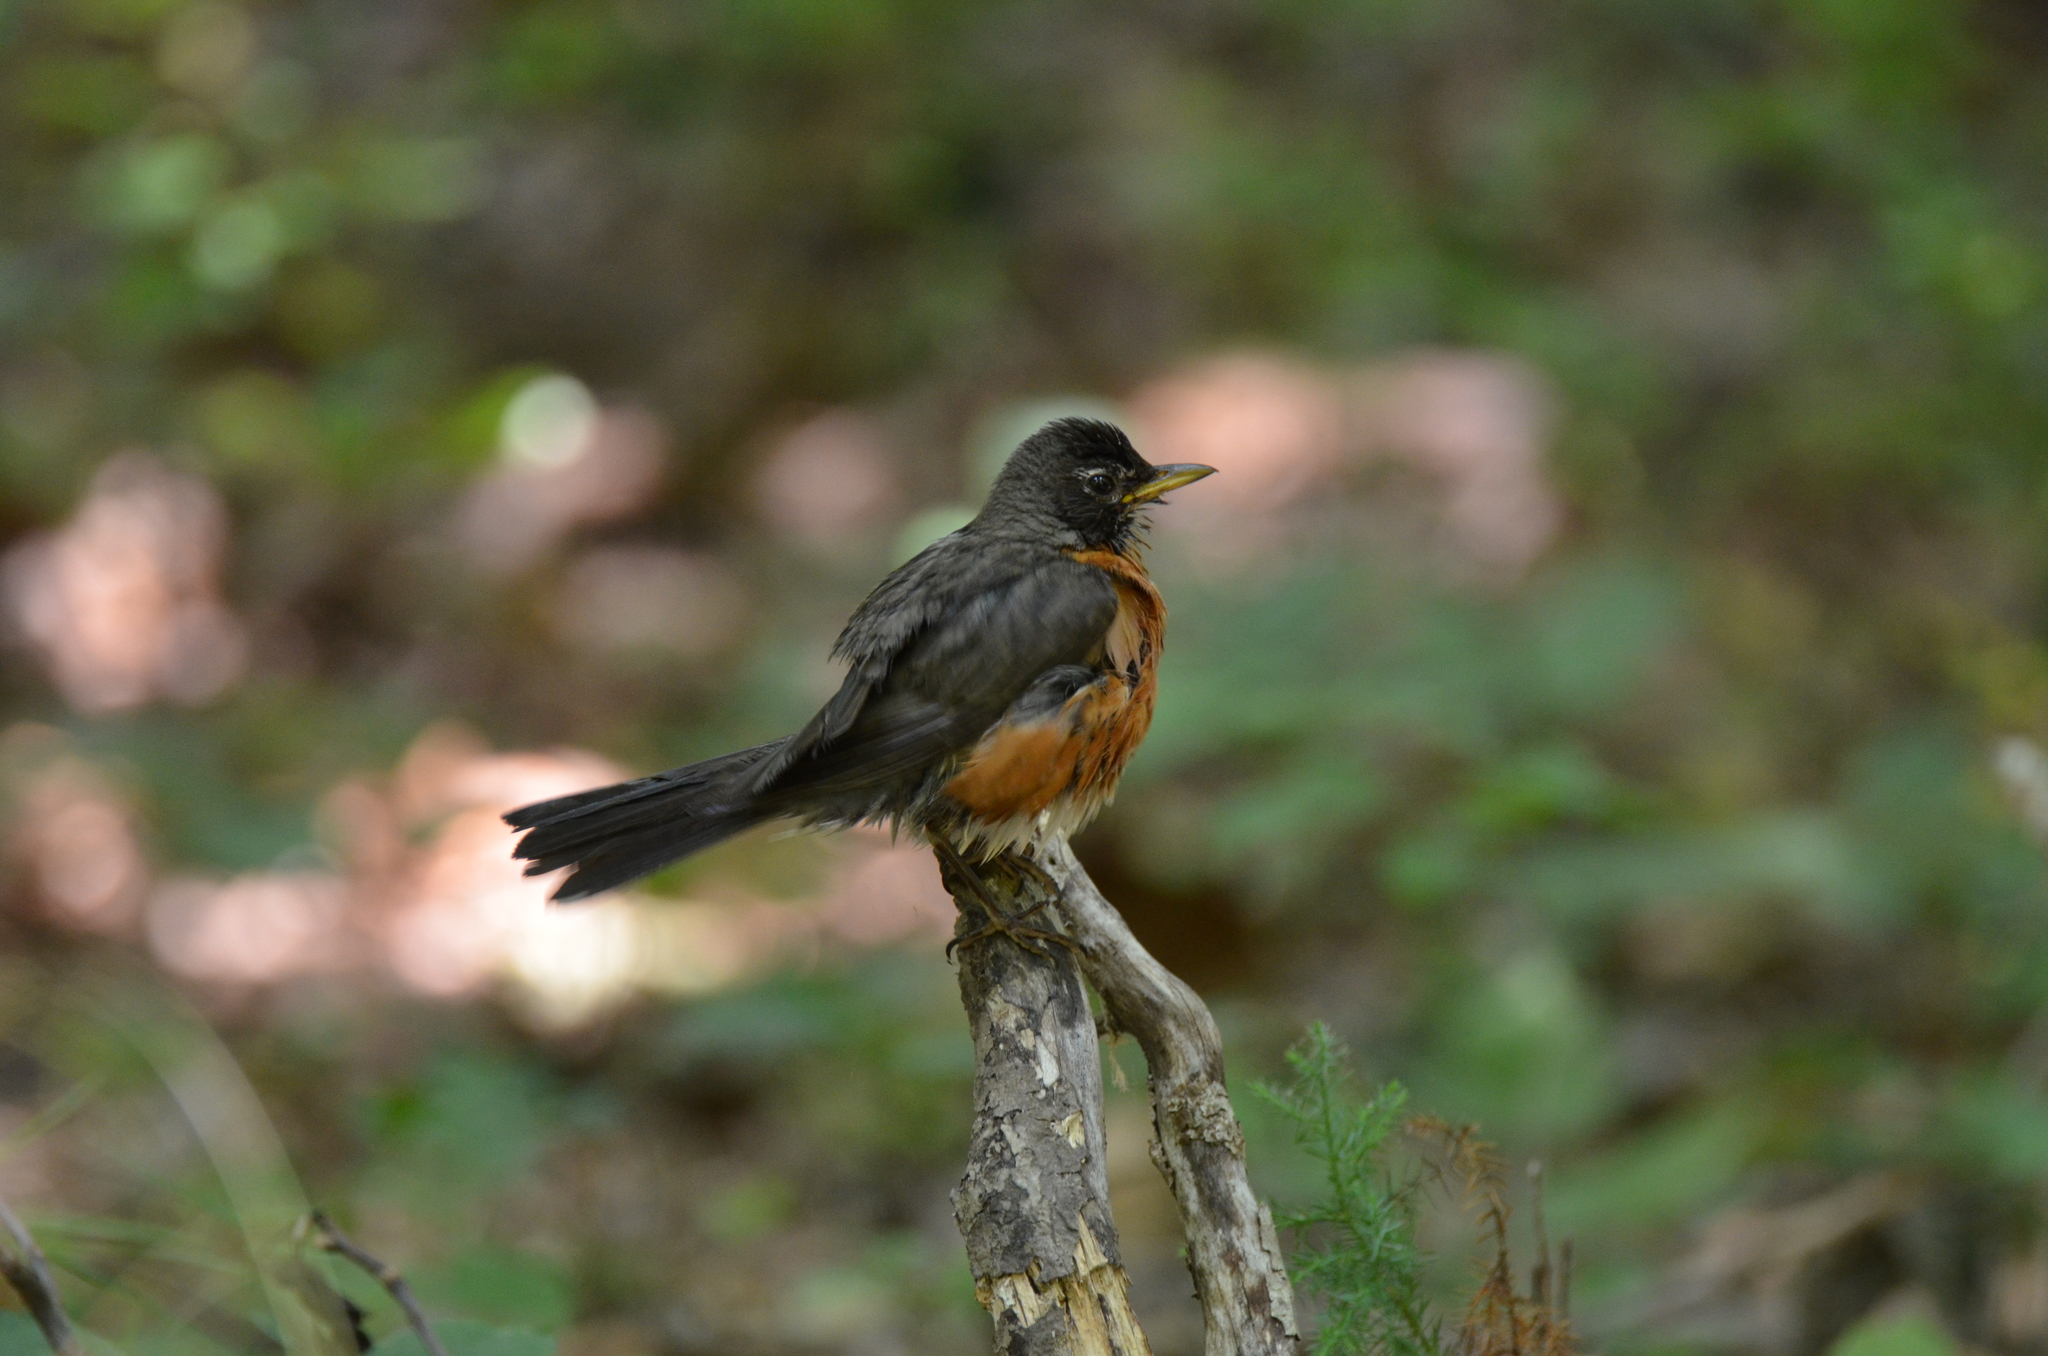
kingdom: Animalia
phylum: Chordata
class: Aves
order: Passeriformes
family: Turdidae
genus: Turdus
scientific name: Turdus migratorius
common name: American robin
